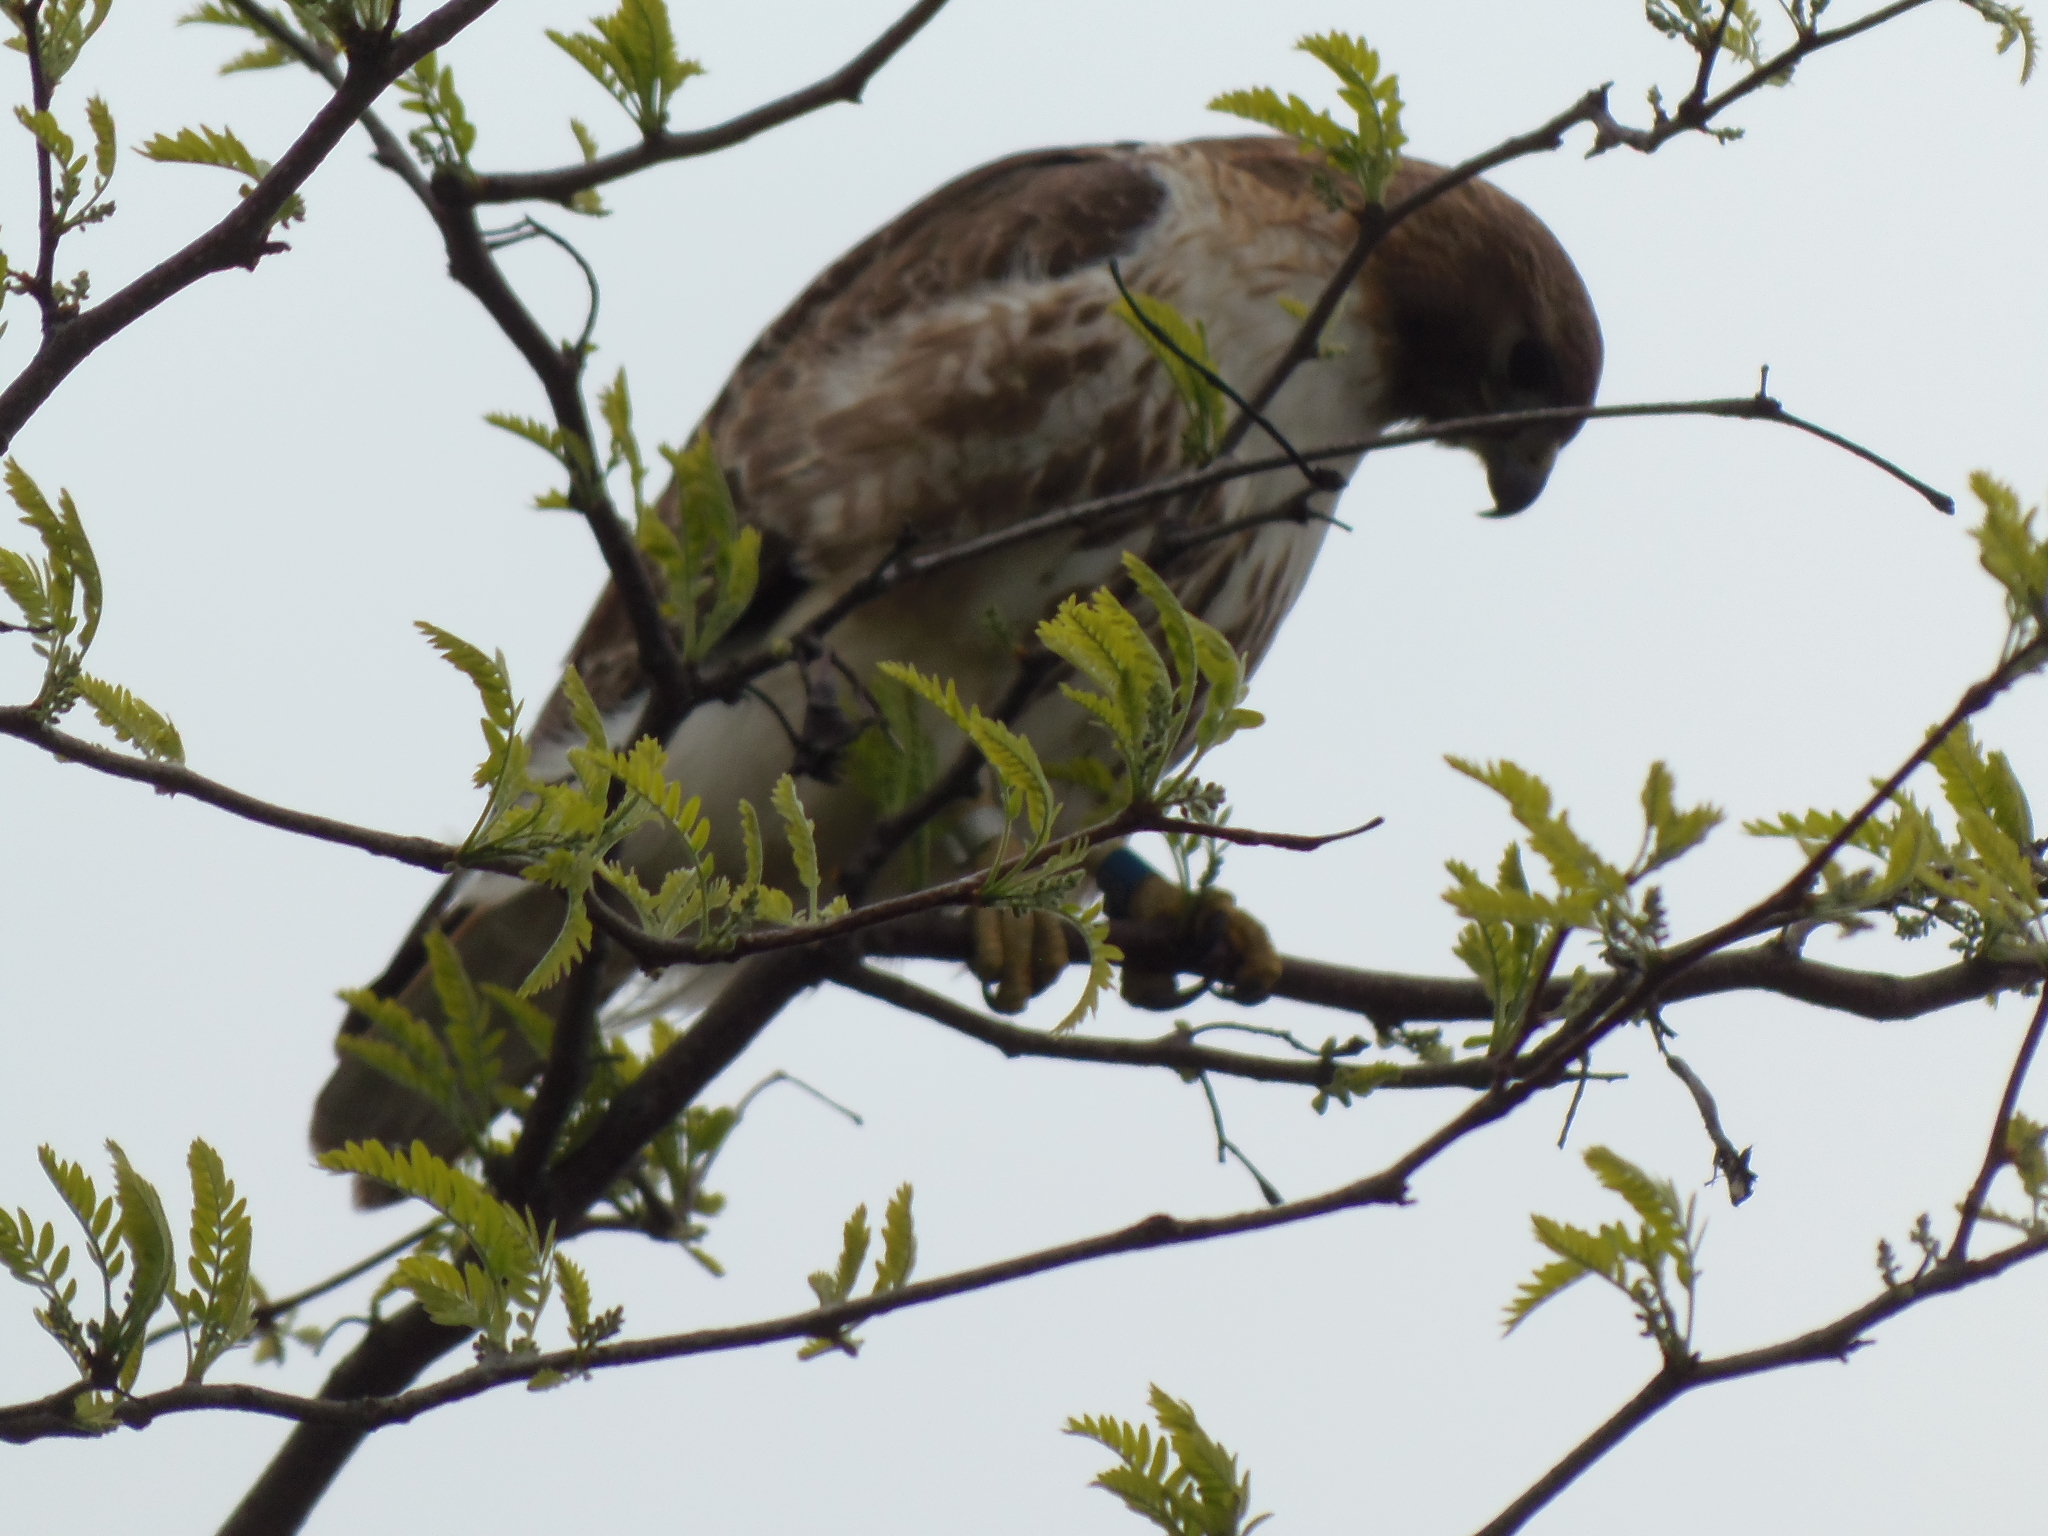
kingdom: Animalia
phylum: Chordata
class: Aves
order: Accipitriformes
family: Accipitridae
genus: Buteo
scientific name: Buteo jamaicensis
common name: Red-tailed hawk
